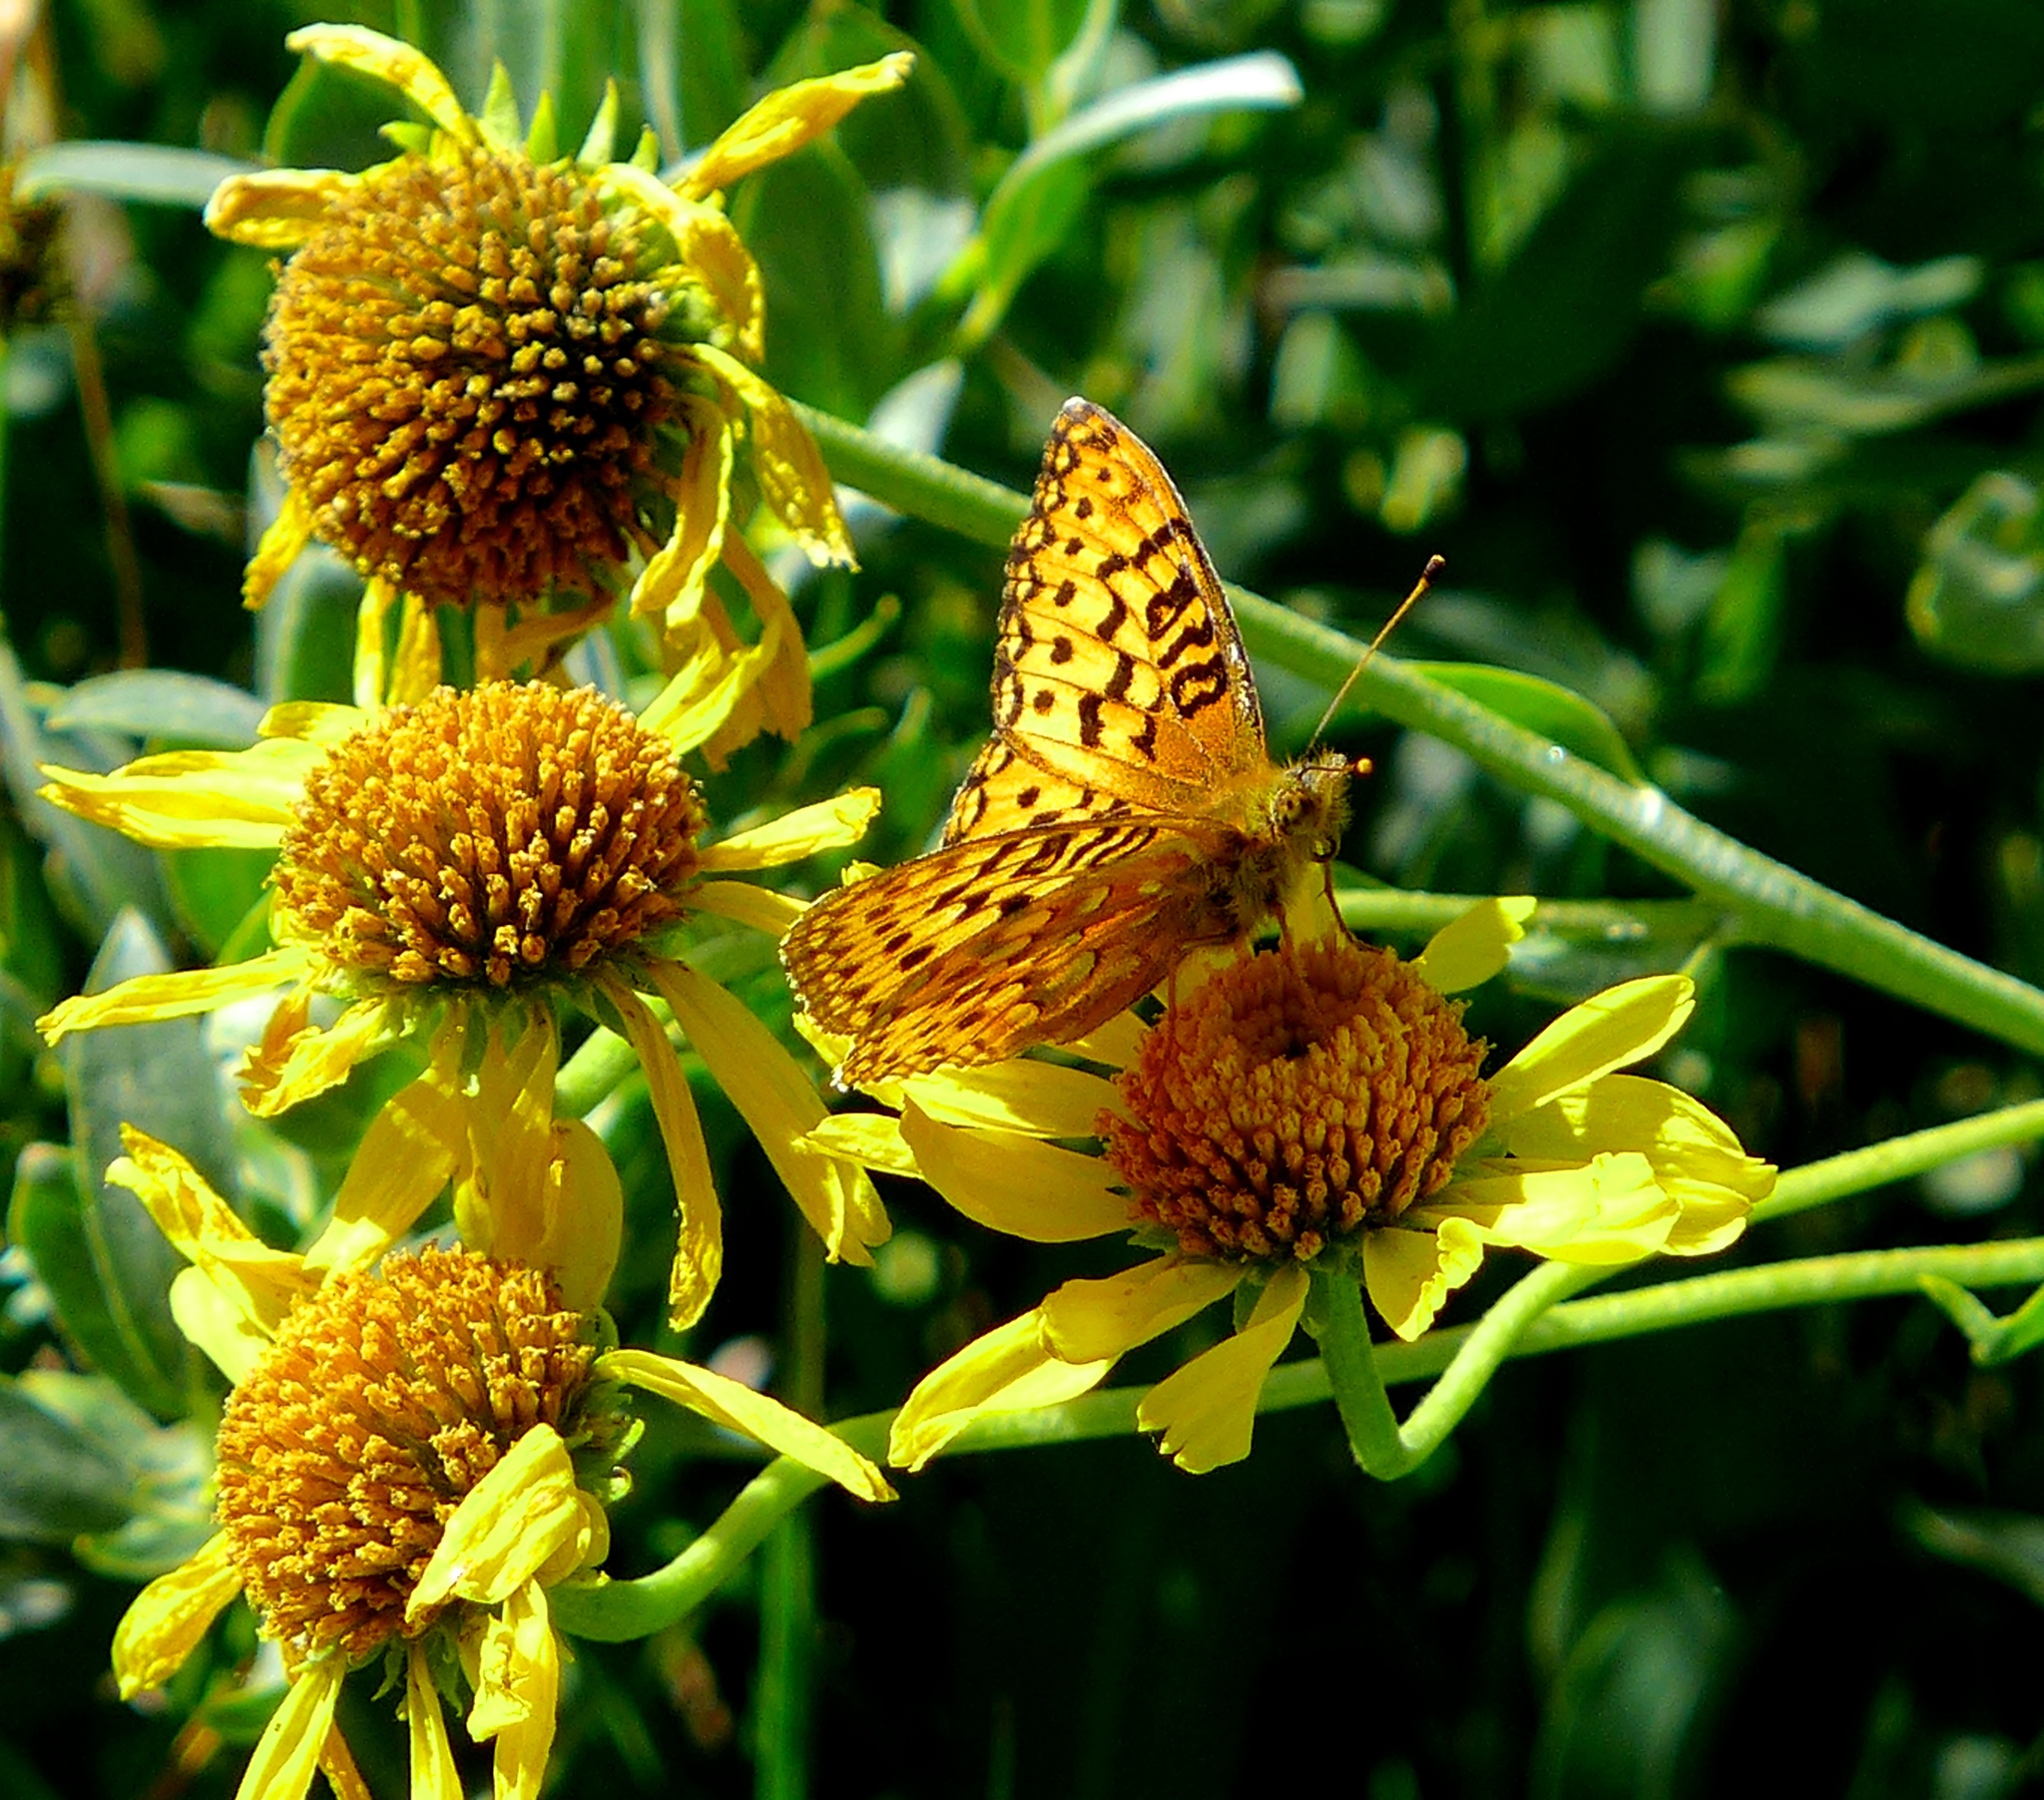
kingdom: Animalia
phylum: Arthropoda
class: Insecta
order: Lepidoptera
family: Nymphalidae
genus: Speyeria
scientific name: Speyeria egleis
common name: Great basin fritillary
